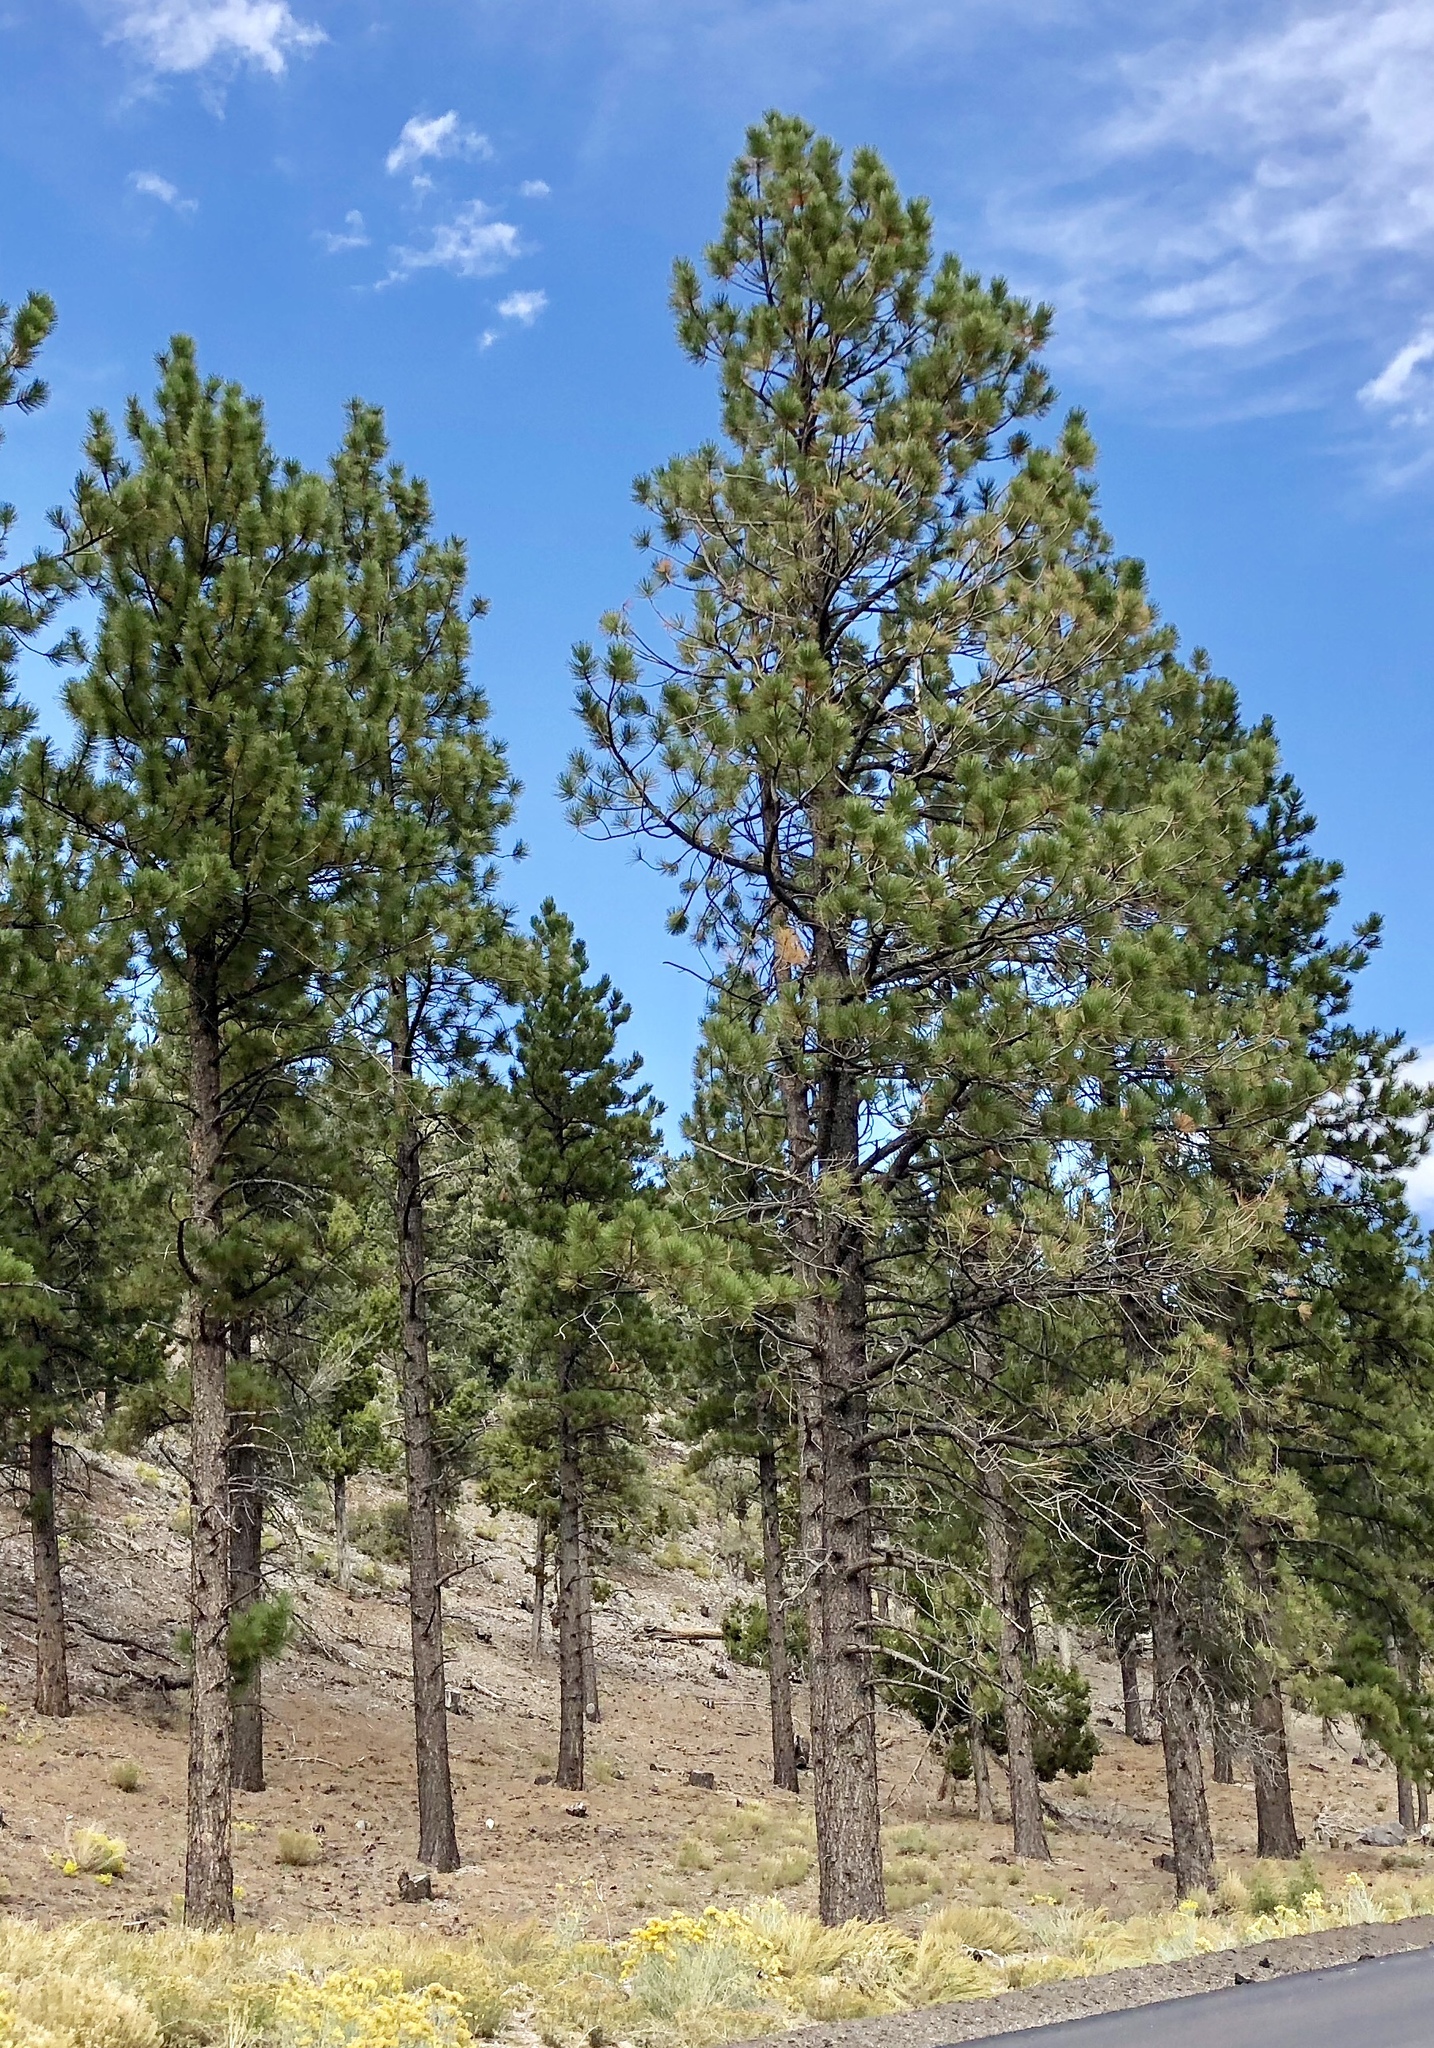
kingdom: Plantae
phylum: Tracheophyta
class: Pinopsida
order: Pinales
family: Pinaceae
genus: Pinus
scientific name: Pinus ponderosa
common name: Western yellow-pine
